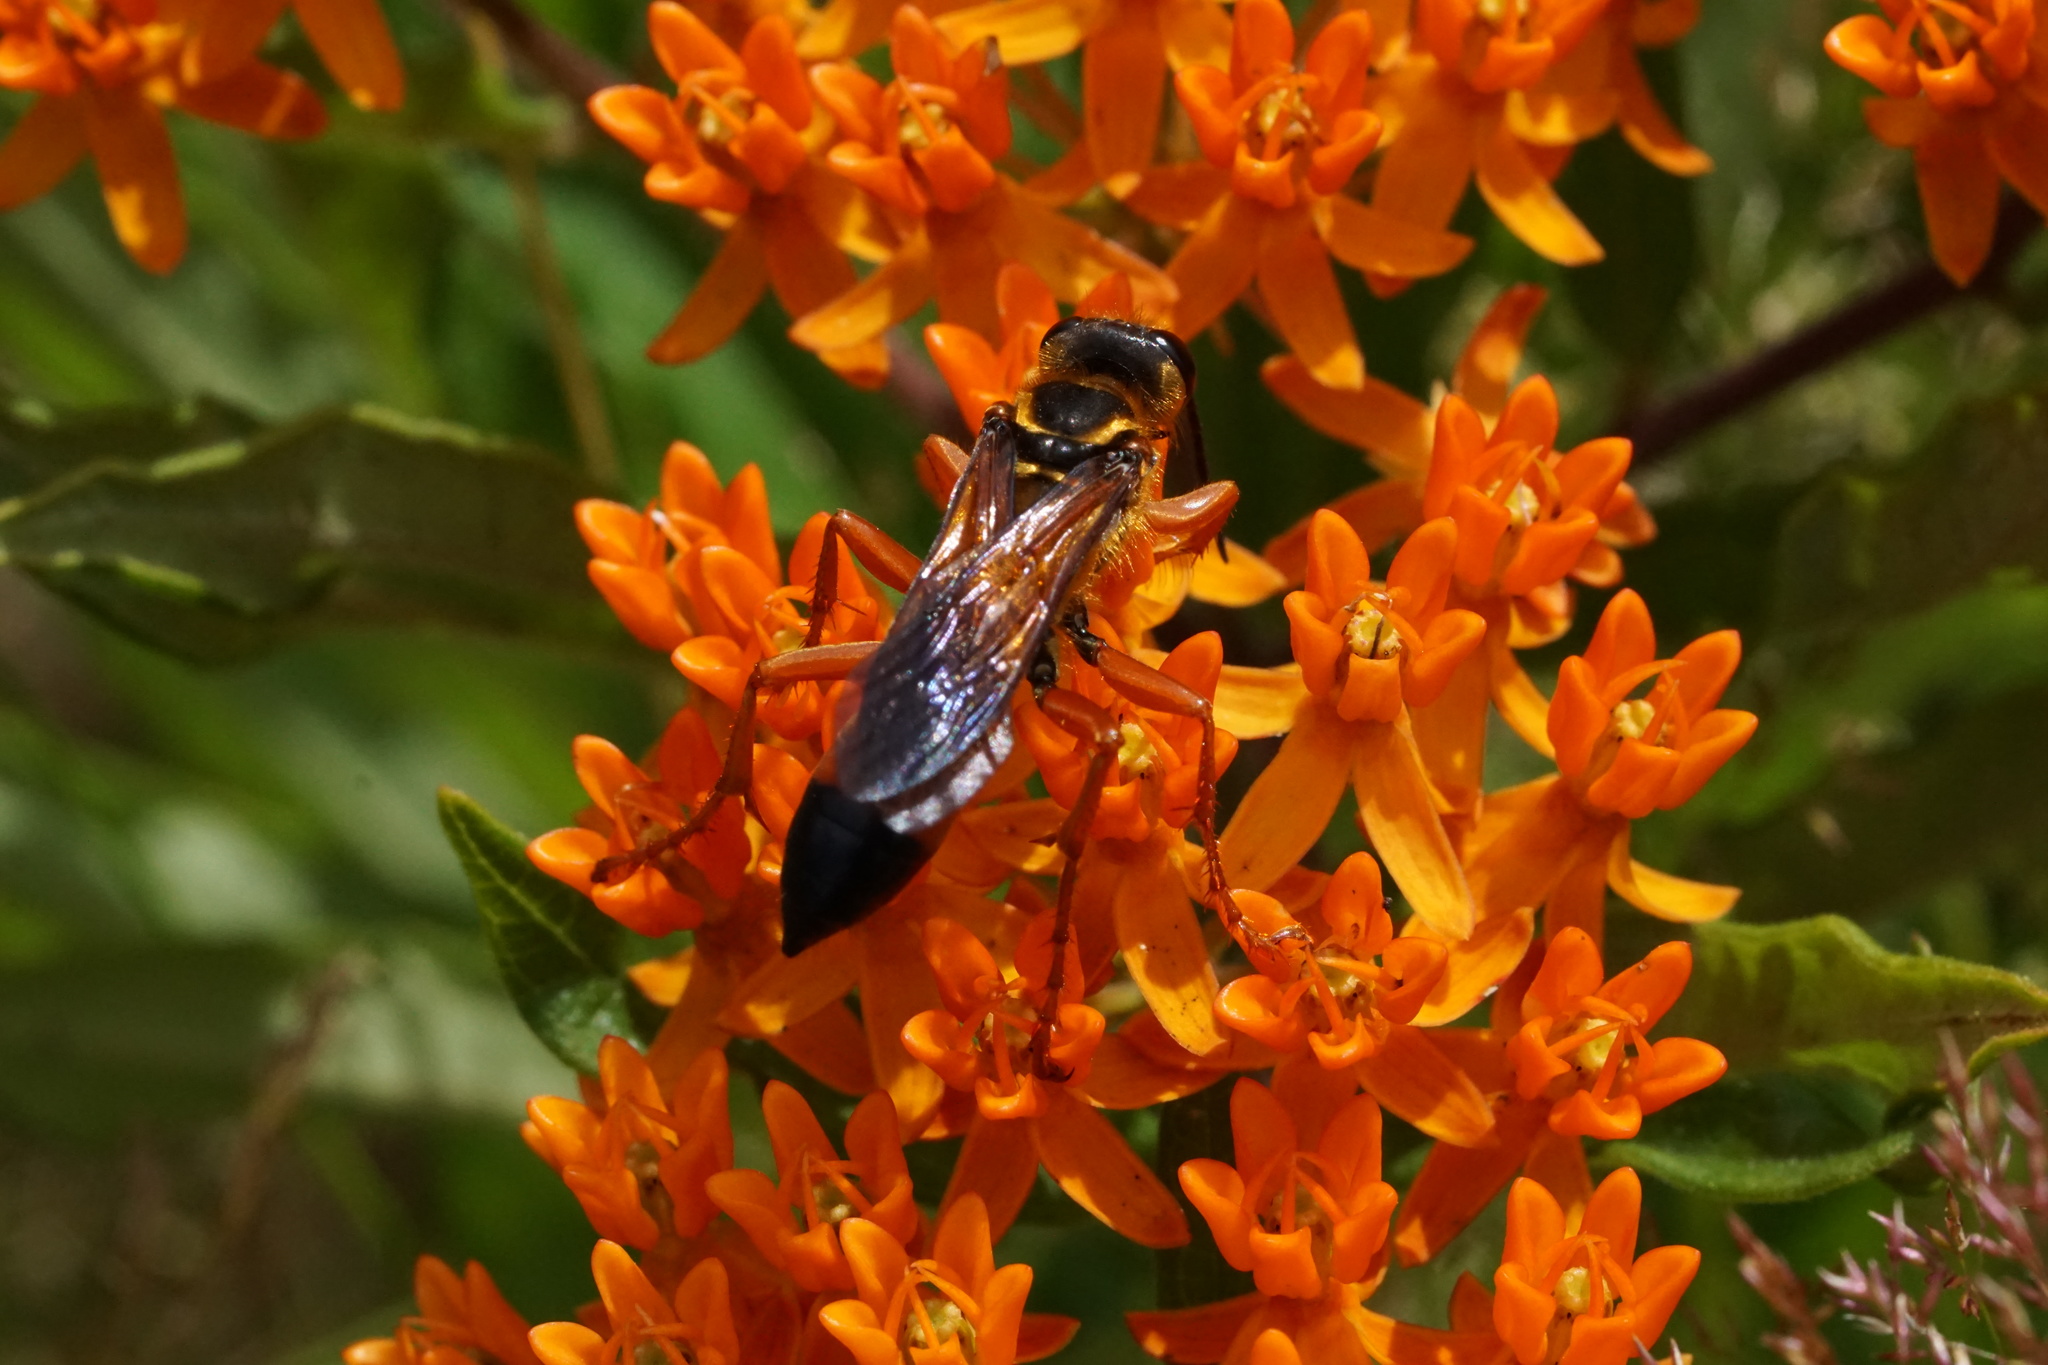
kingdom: Animalia
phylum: Arthropoda
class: Insecta
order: Hymenoptera
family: Sphecidae
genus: Sphex
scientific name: Sphex ichneumoneus
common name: Great golden digger wasp
